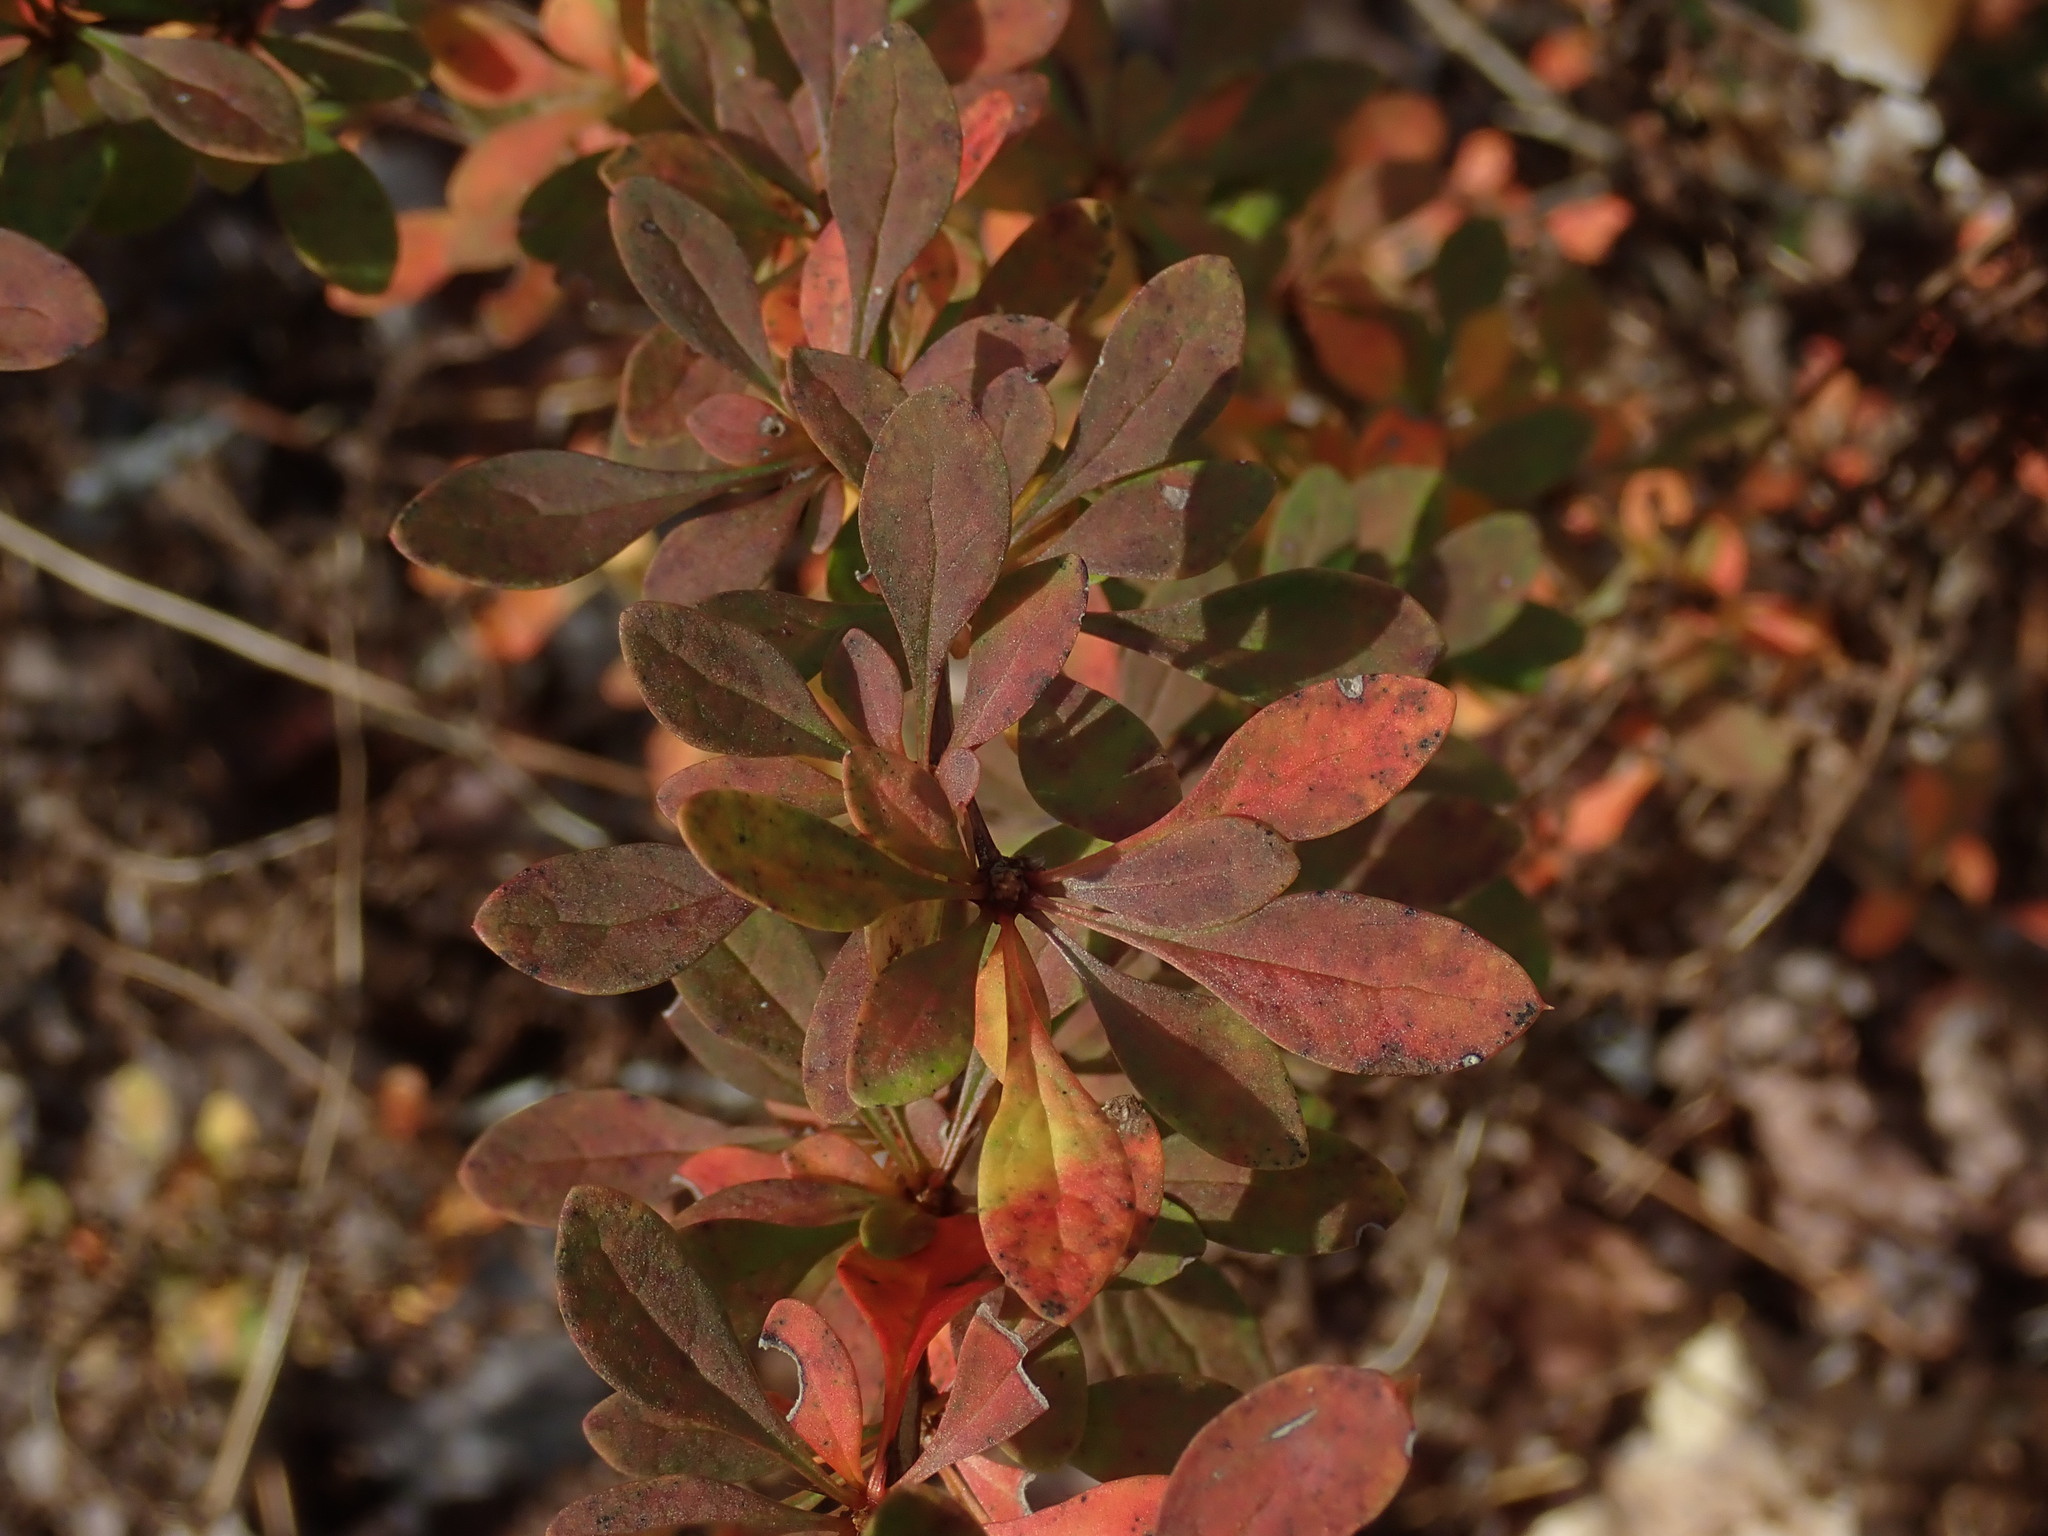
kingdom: Plantae
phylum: Tracheophyta
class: Magnoliopsida
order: Ranunculales
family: Berberidaceae
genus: Berberis
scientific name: Berberis thunbergii
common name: Japanese barberry
